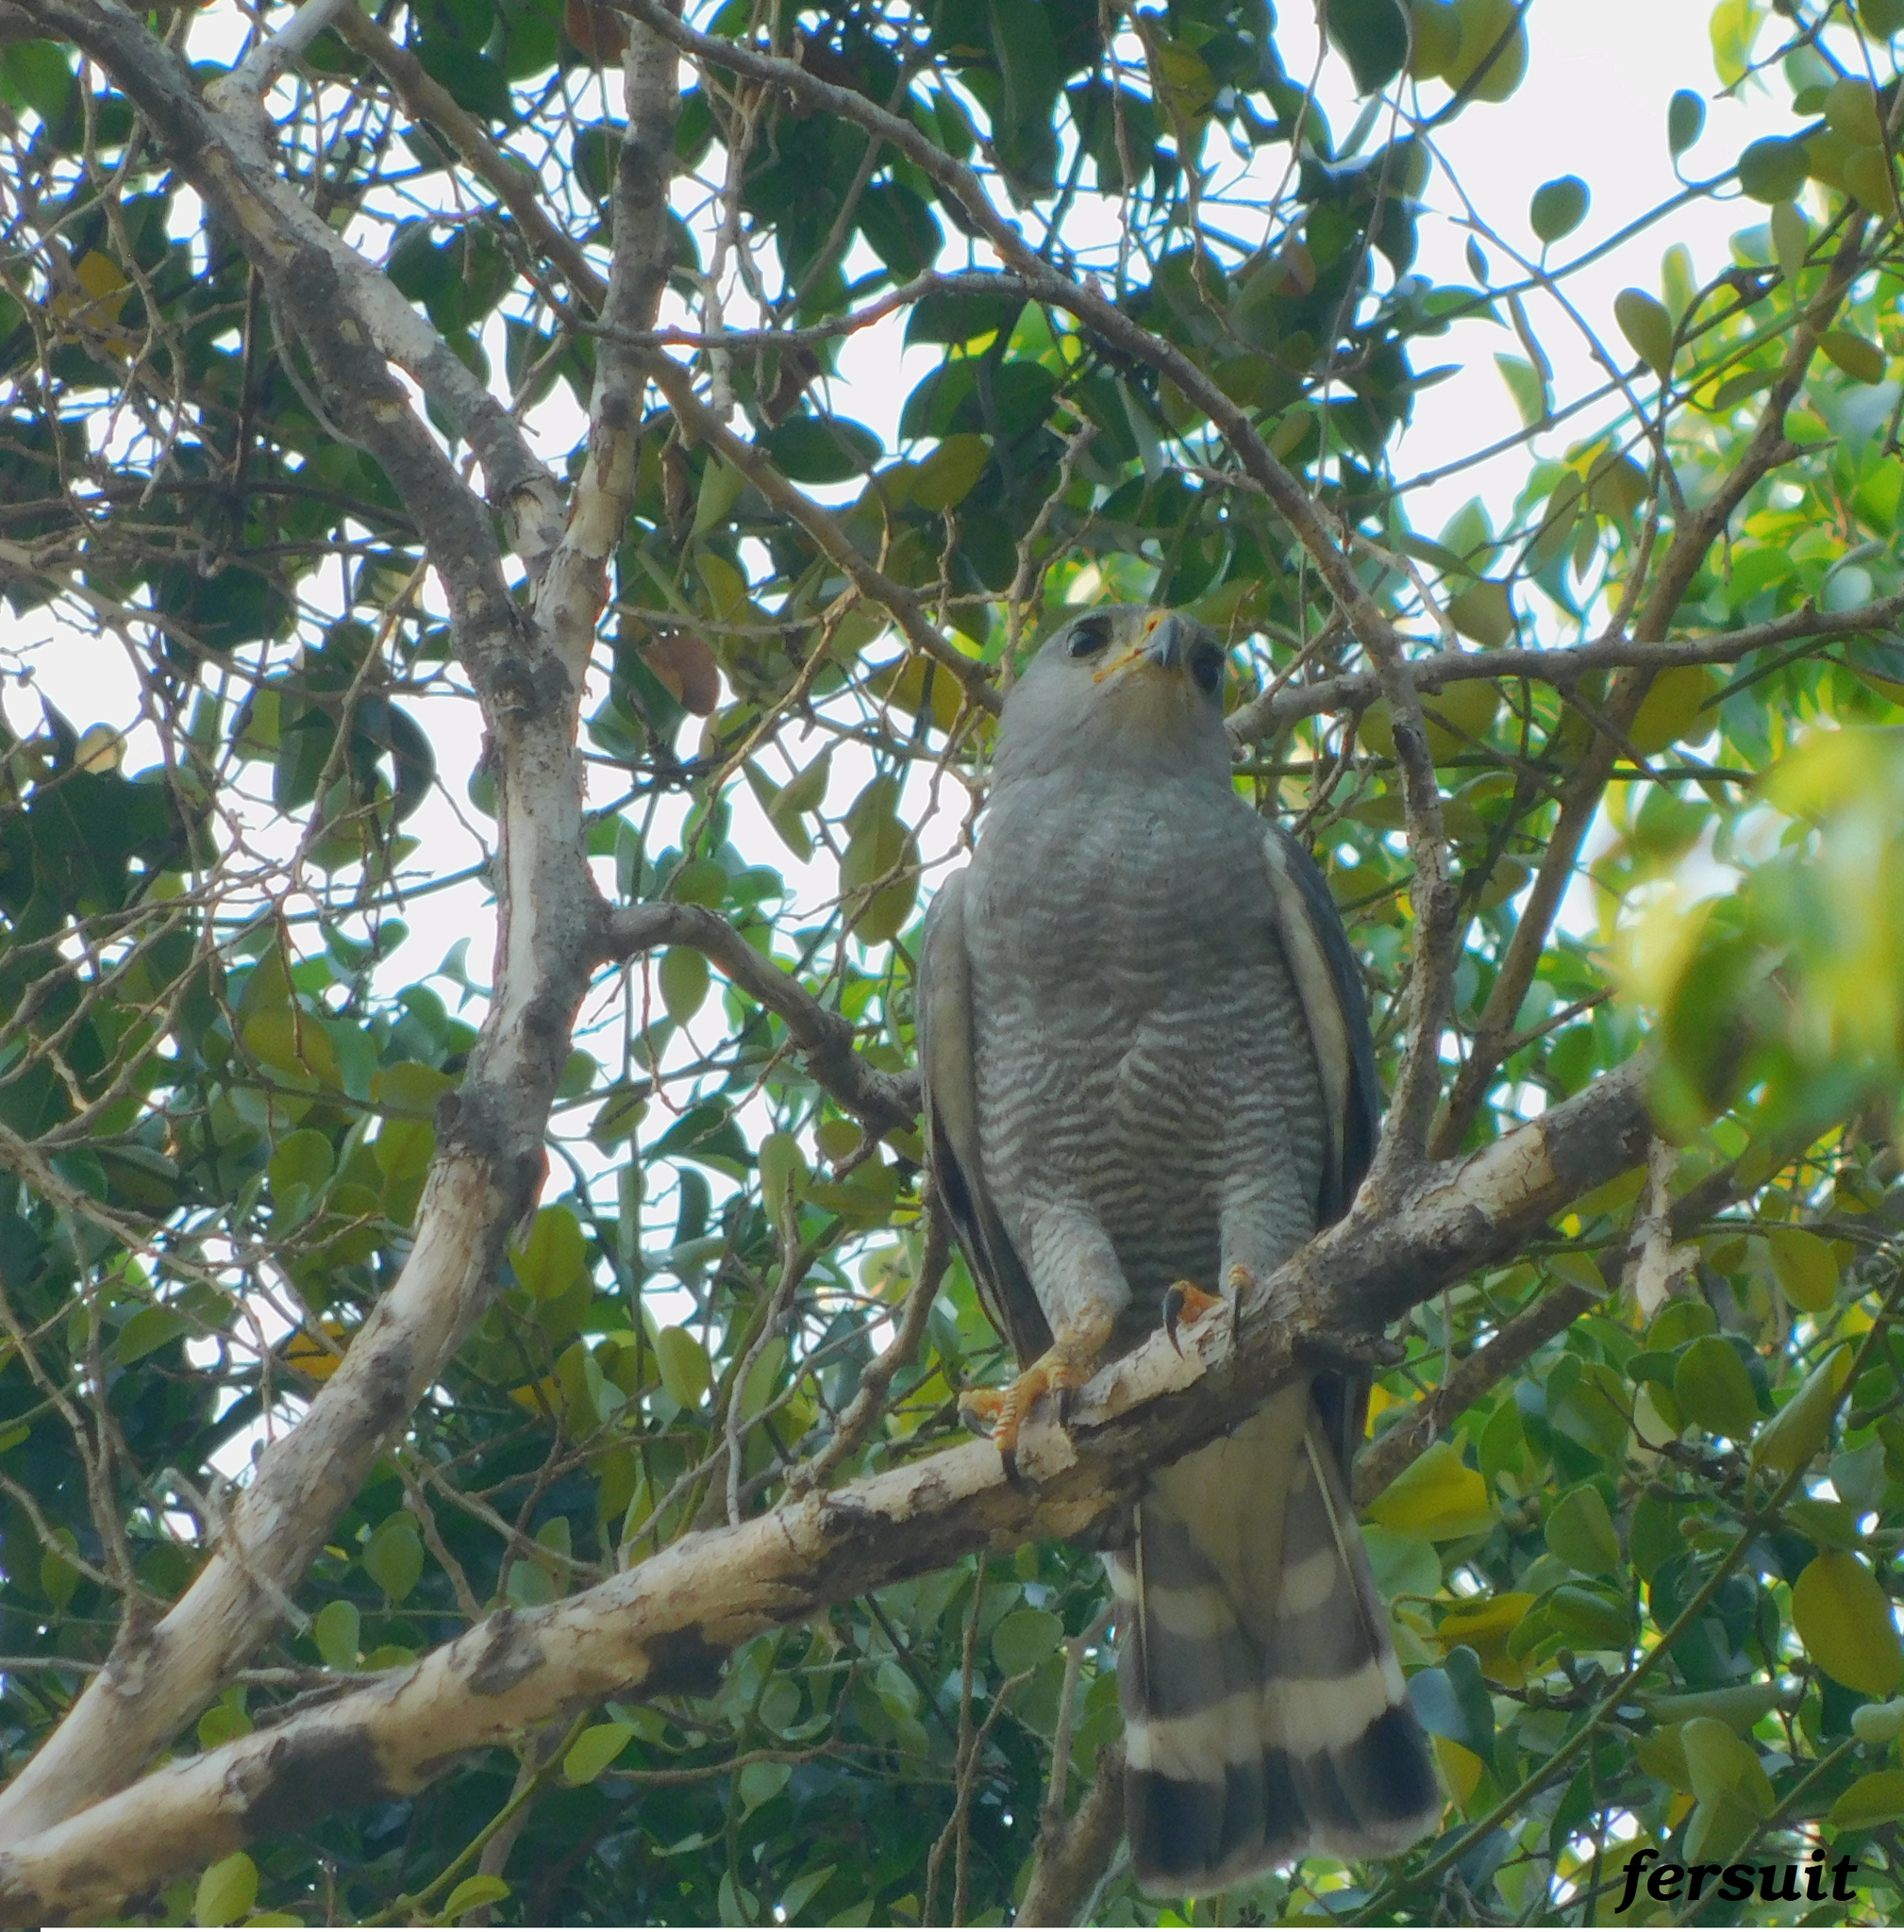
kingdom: Animalia
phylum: Chordata
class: Aves
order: Accipitriformes
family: Accipitridae
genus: Buteo
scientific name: Buteo nitidus
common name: Grey-lined hawk
